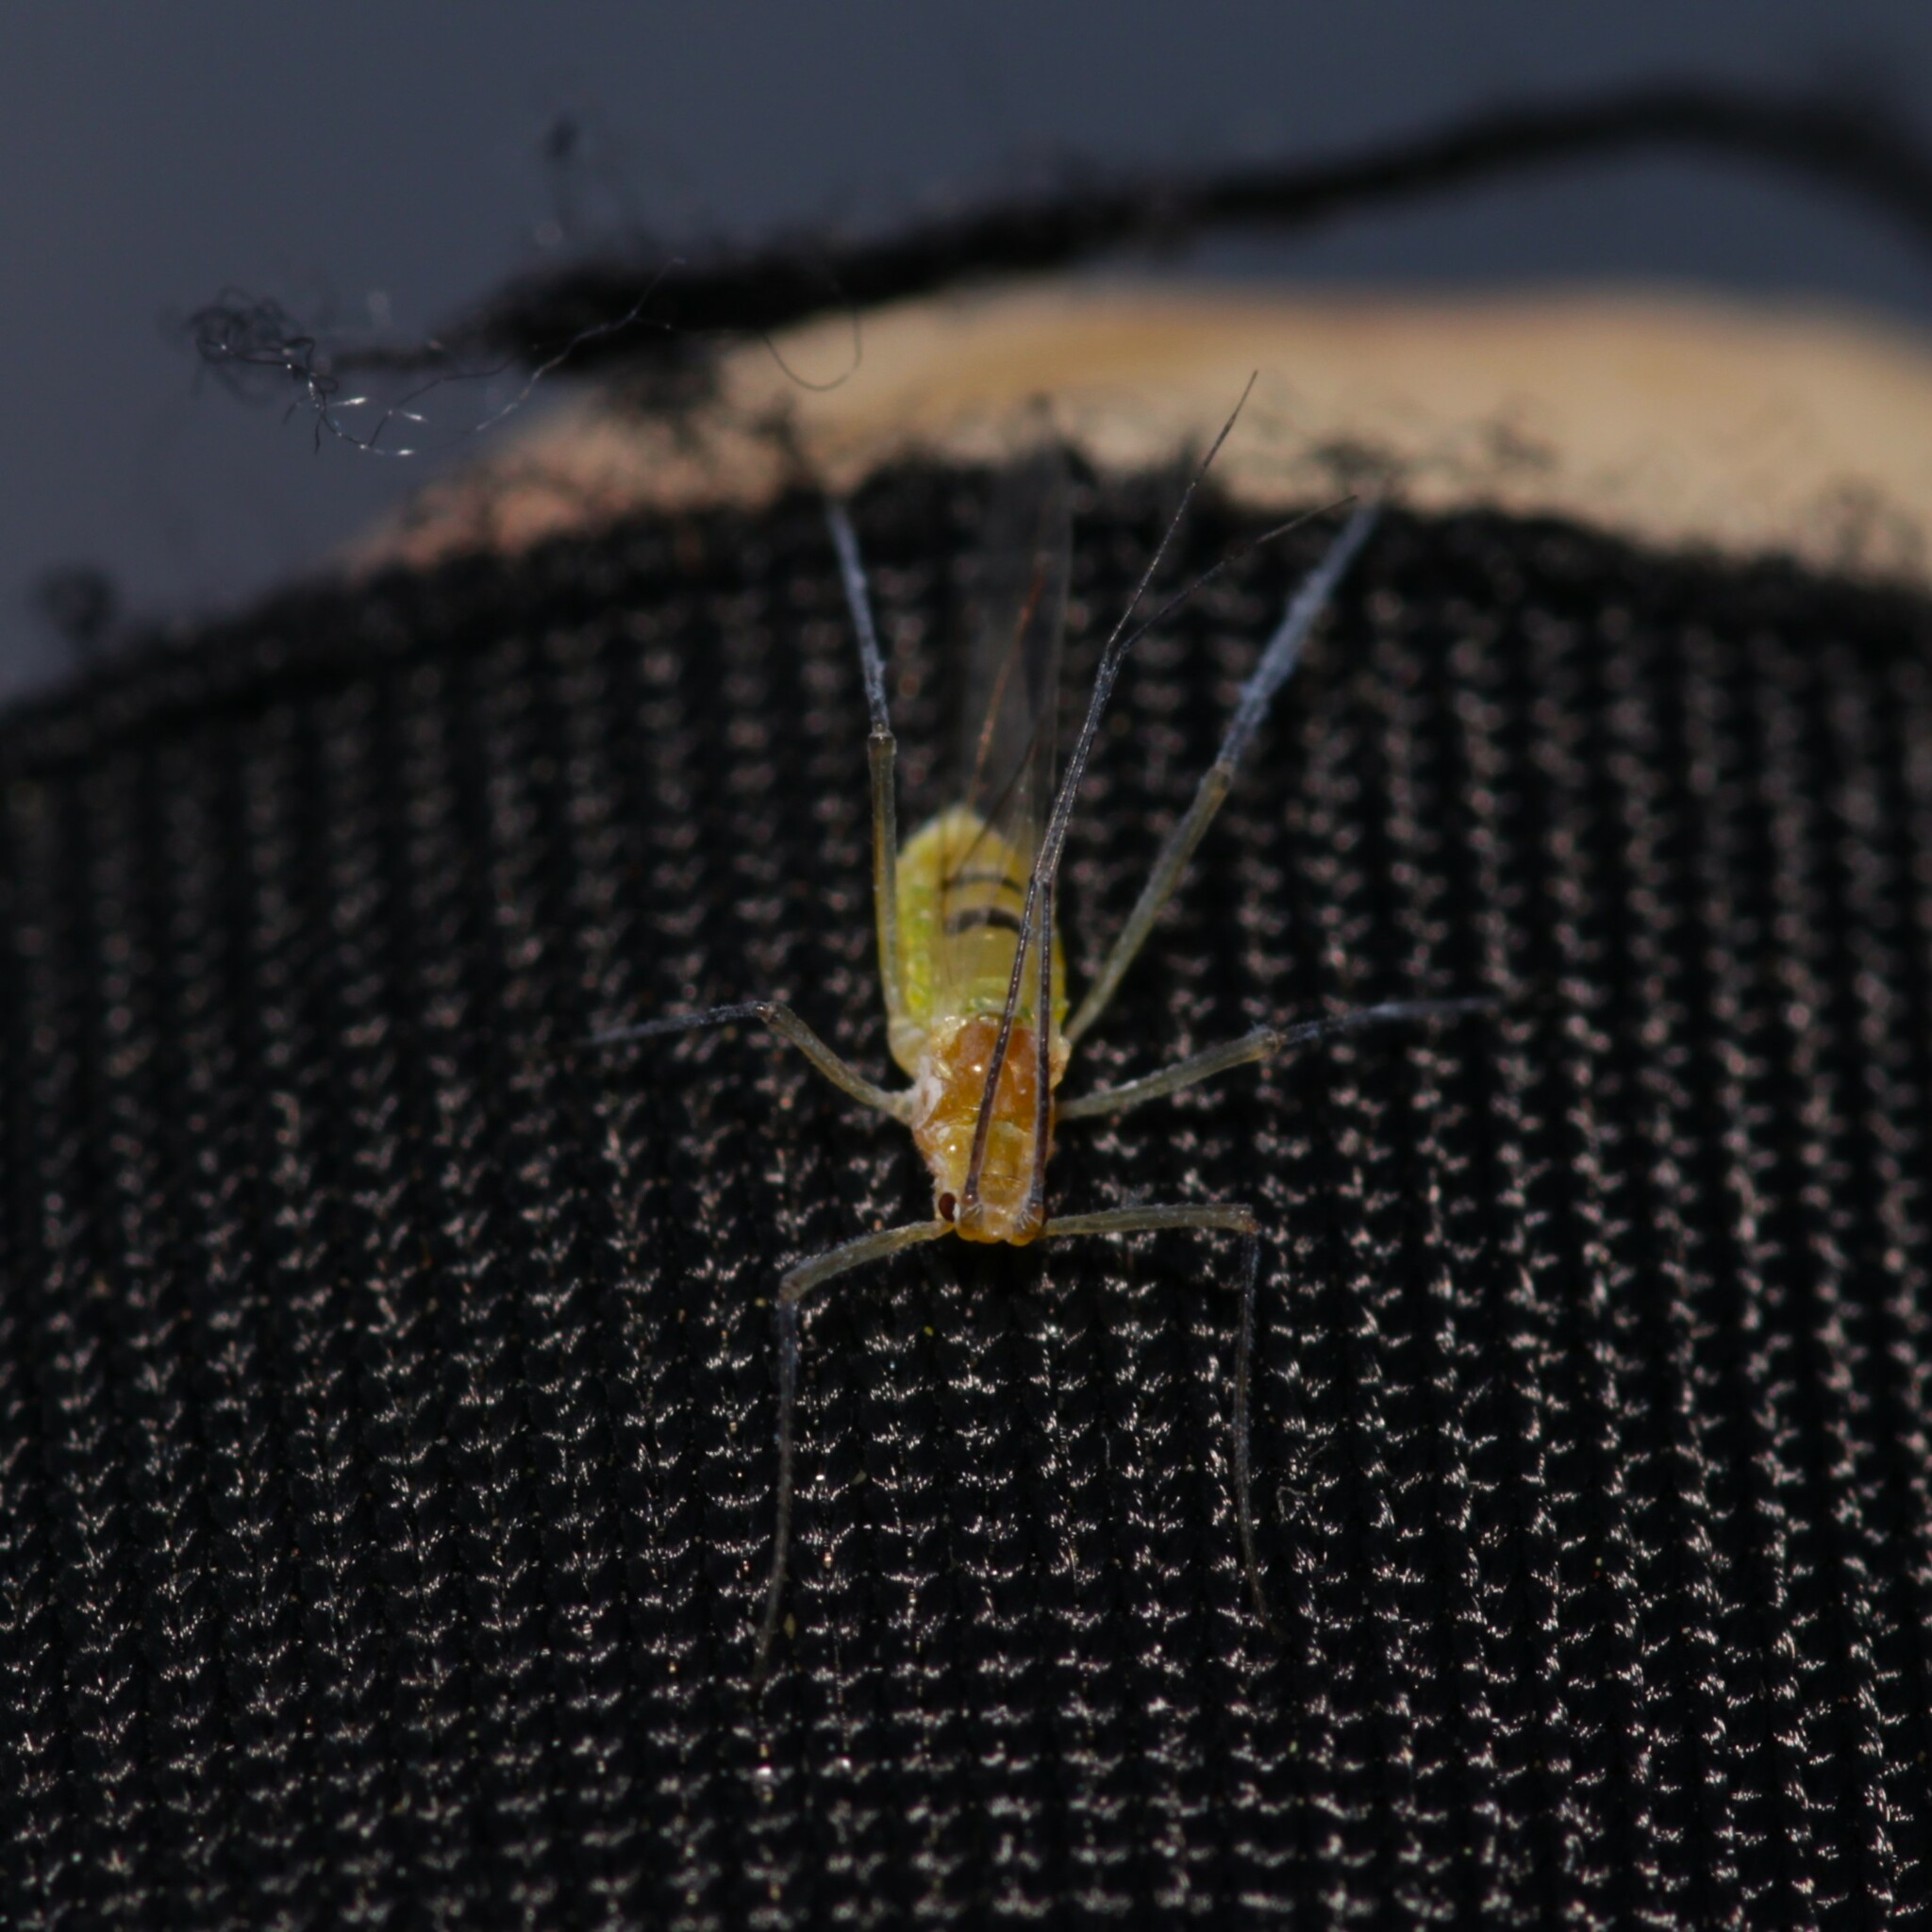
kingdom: Animalia
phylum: Arthropoda
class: Insecta
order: Hemiptera
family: Aphididae
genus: Euceraphis
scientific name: Euceraphis
